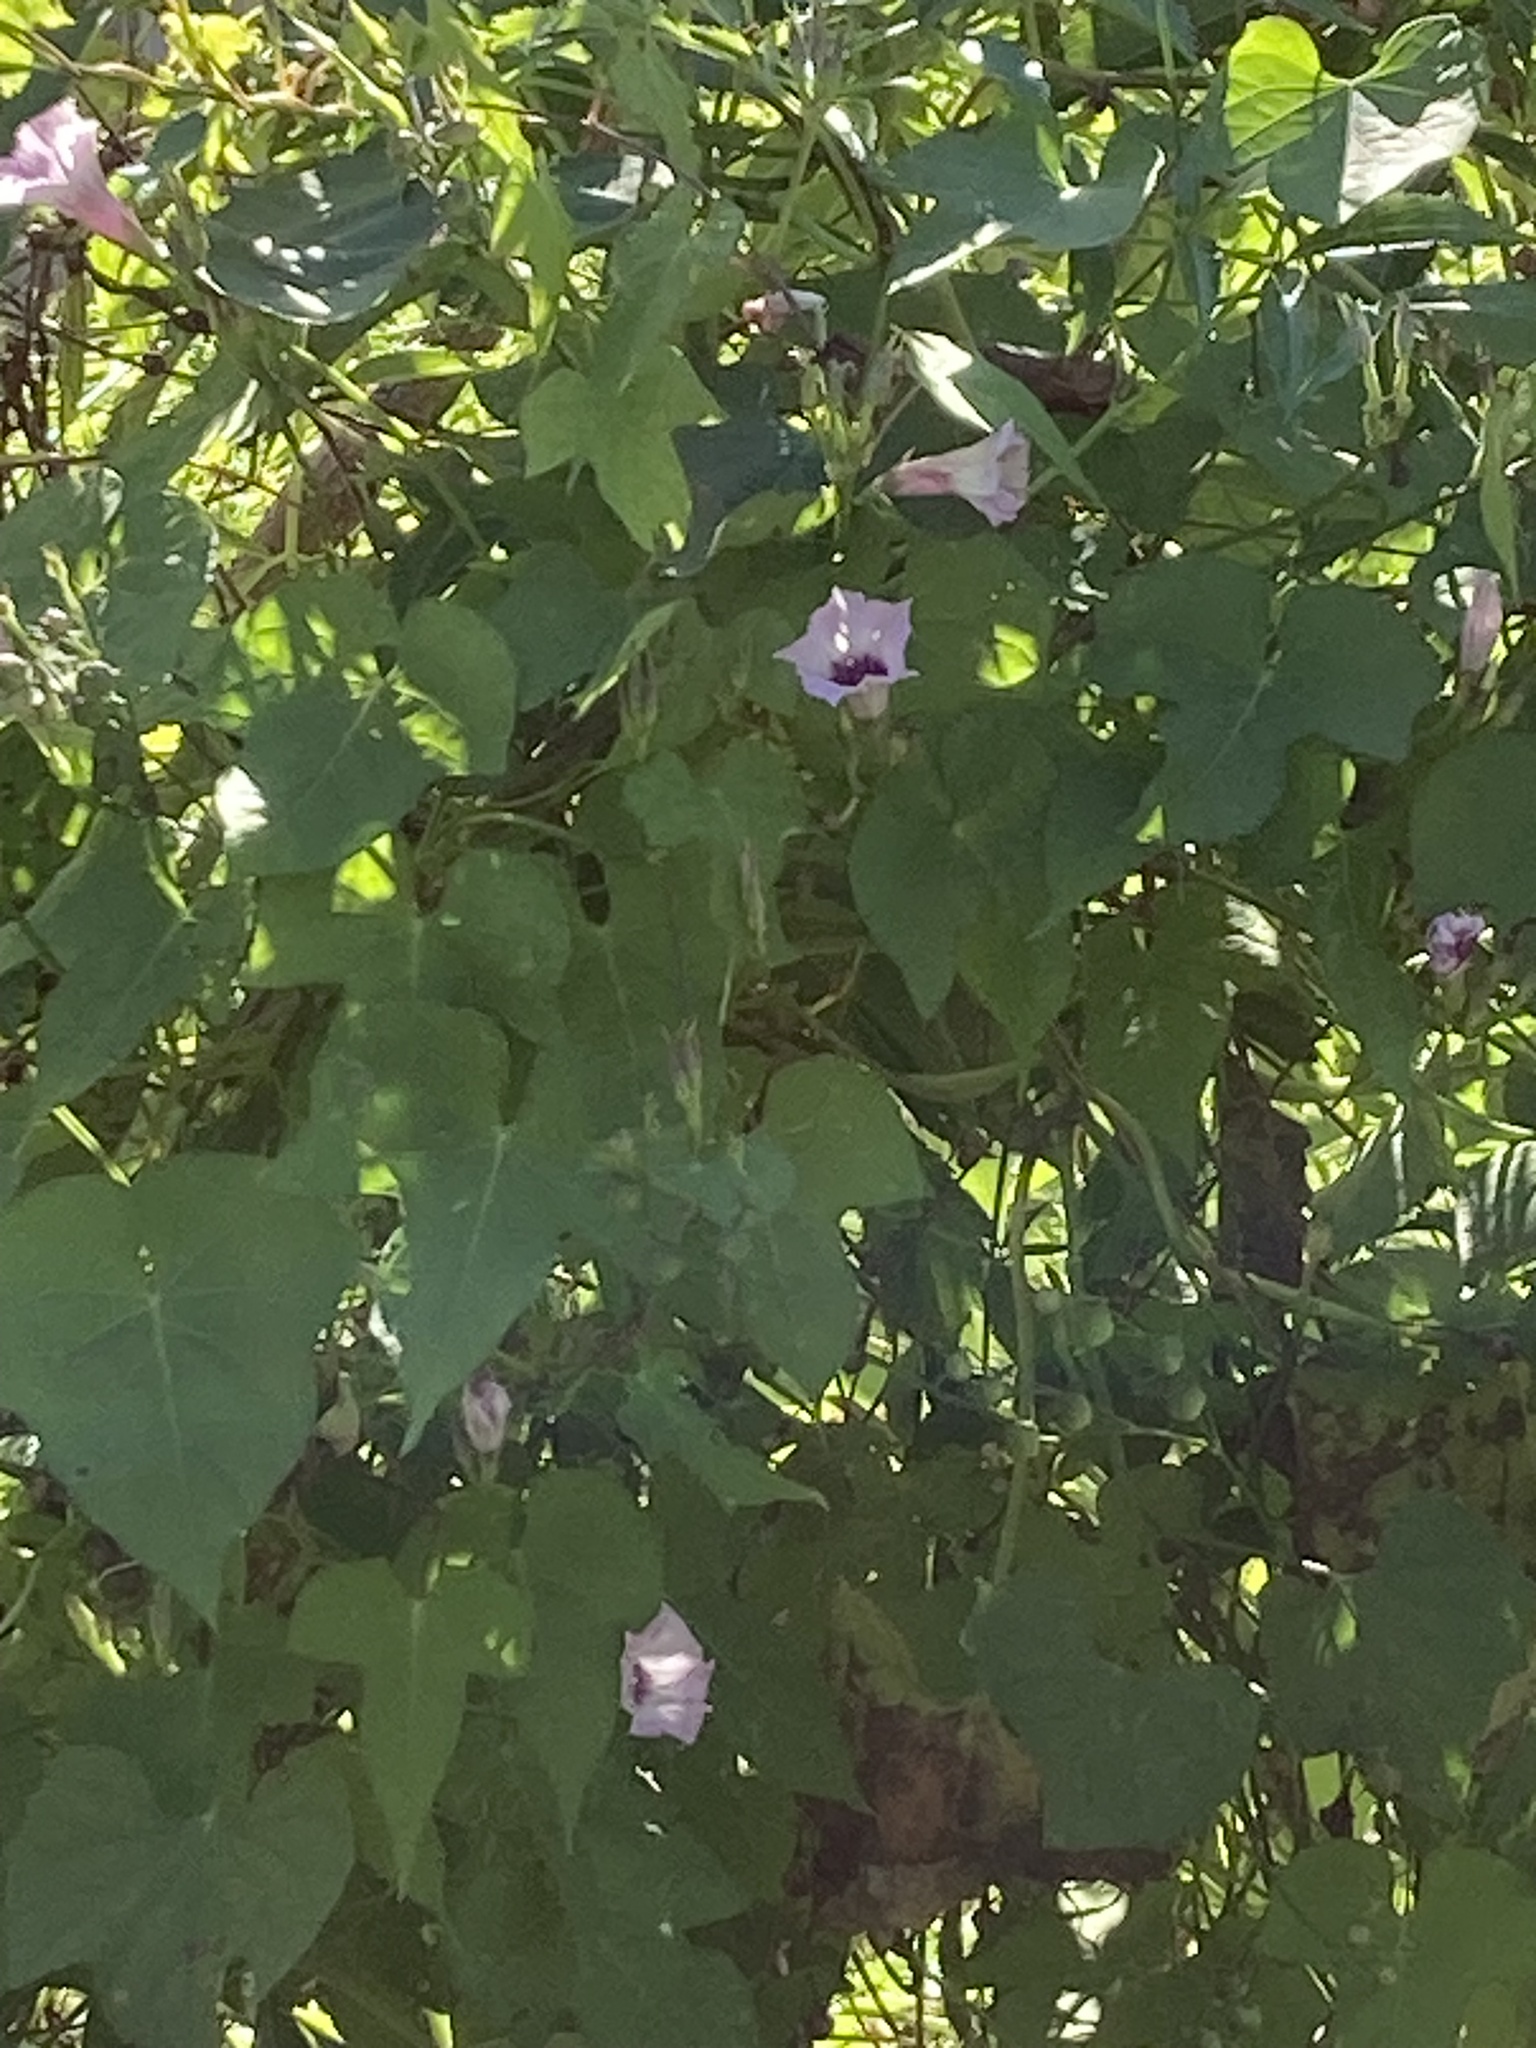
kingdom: Plantae
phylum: Tracheophyta
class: Magnoliopsida
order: Solanales
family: Convolvulaceae
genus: Ipomoea
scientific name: Ipomoea triloba
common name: Little-bell
